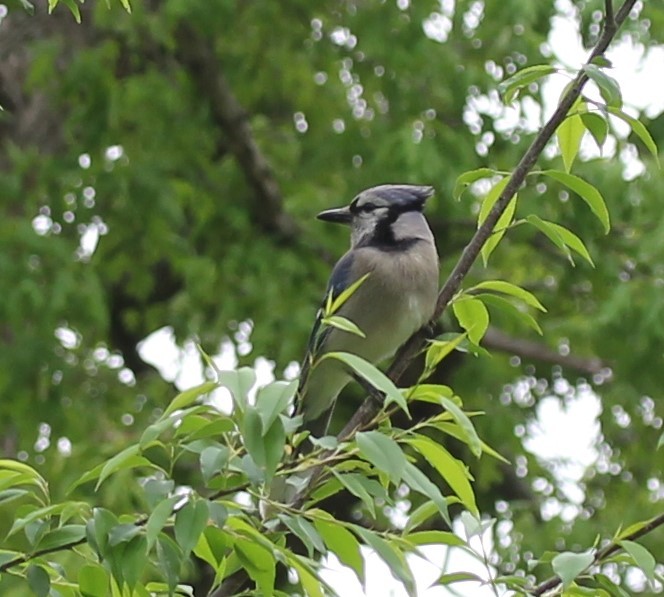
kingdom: Animalia
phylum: Chordata
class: Aves
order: Passeriformes
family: Corvidae
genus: Cyanocitta
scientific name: Cyanocitta cristata
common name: Blue jay
